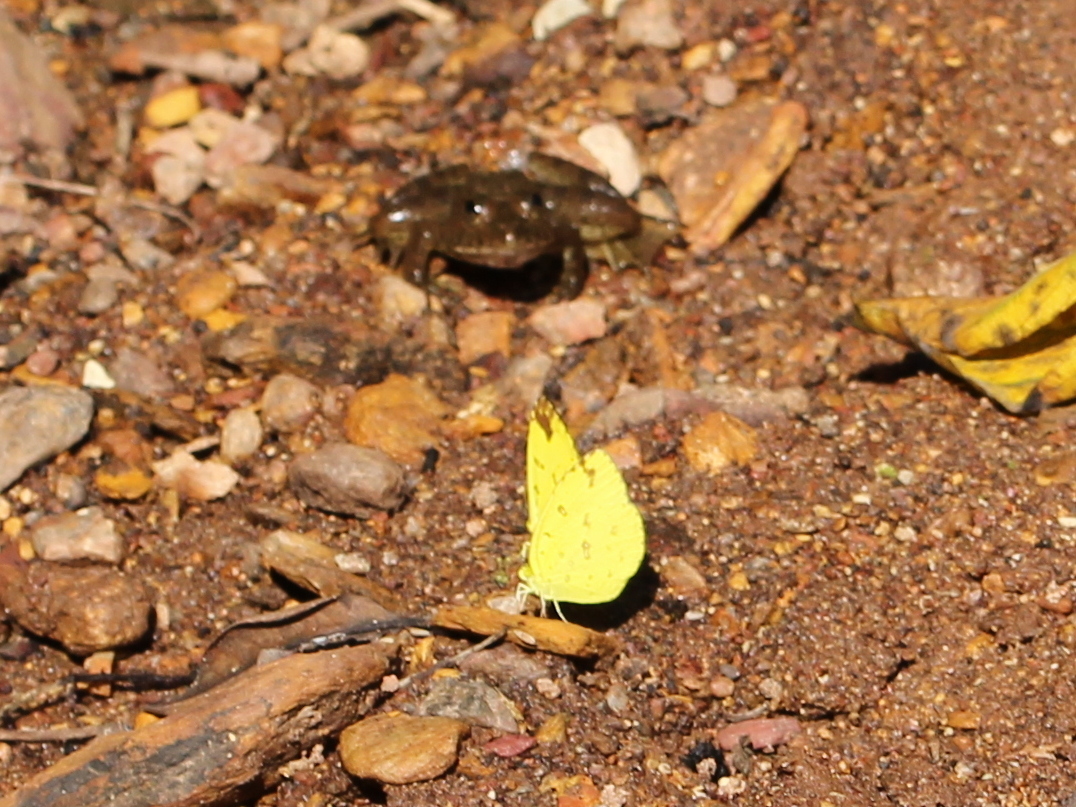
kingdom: Animalia
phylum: Arthropoda
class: Insecta
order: Lepidoptera
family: Pieridae
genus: Eurema
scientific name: Eurema blanda
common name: Three-spot grass yellow
